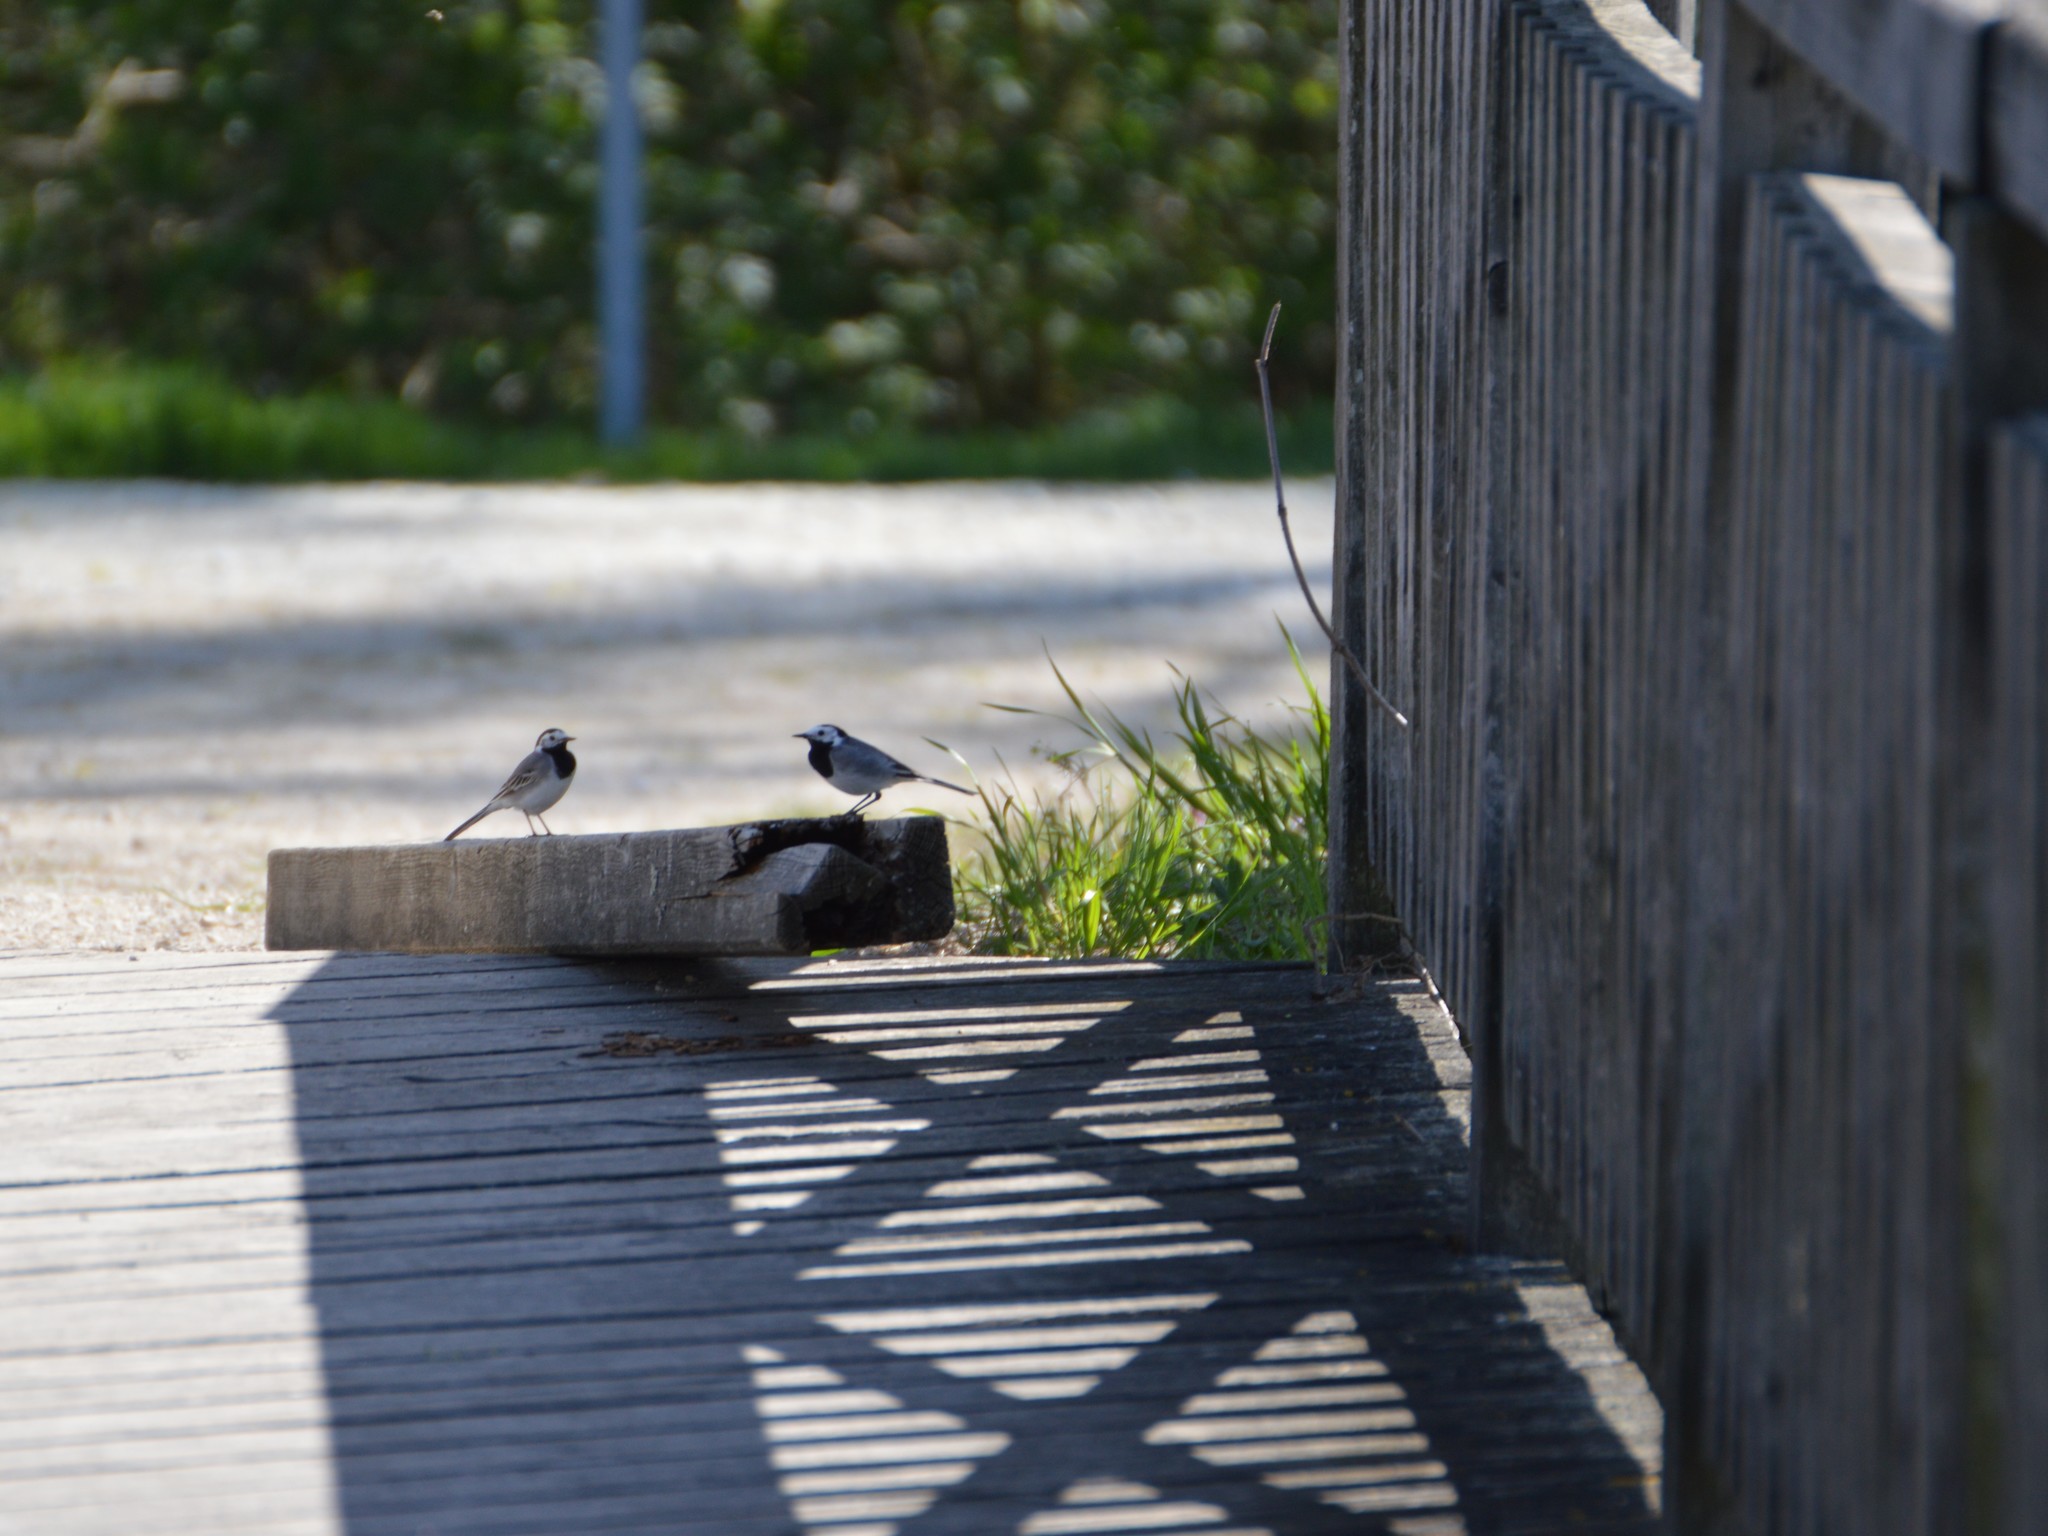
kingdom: Animalia
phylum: Chordata
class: Aves
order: Passeriformes
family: Motacillidae
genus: Motacilla
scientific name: Motacilla alba
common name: White wagtail
